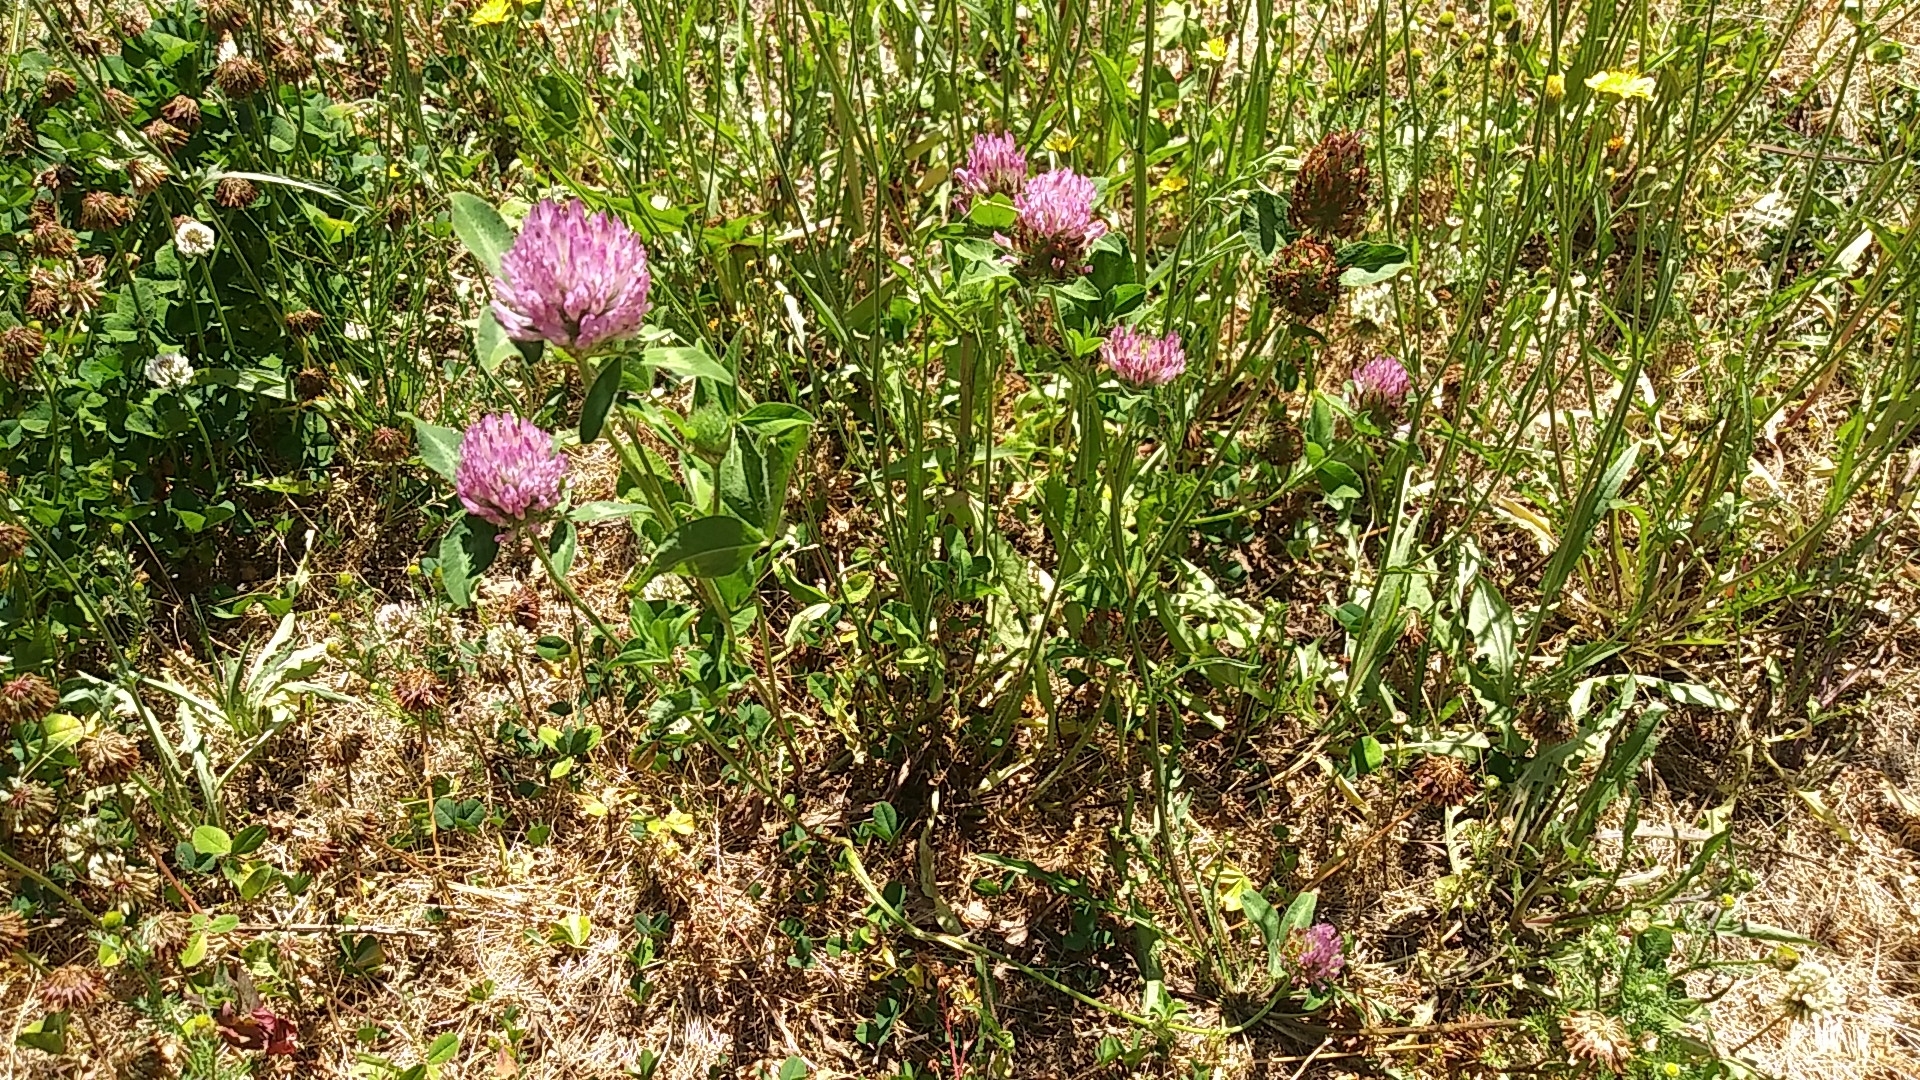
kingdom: Plantae
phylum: Tracheophyta
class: Magnoliopsida
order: Fabales
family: Fabaceae
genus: Trifolium
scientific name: Trifolium pratense
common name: Red clover
